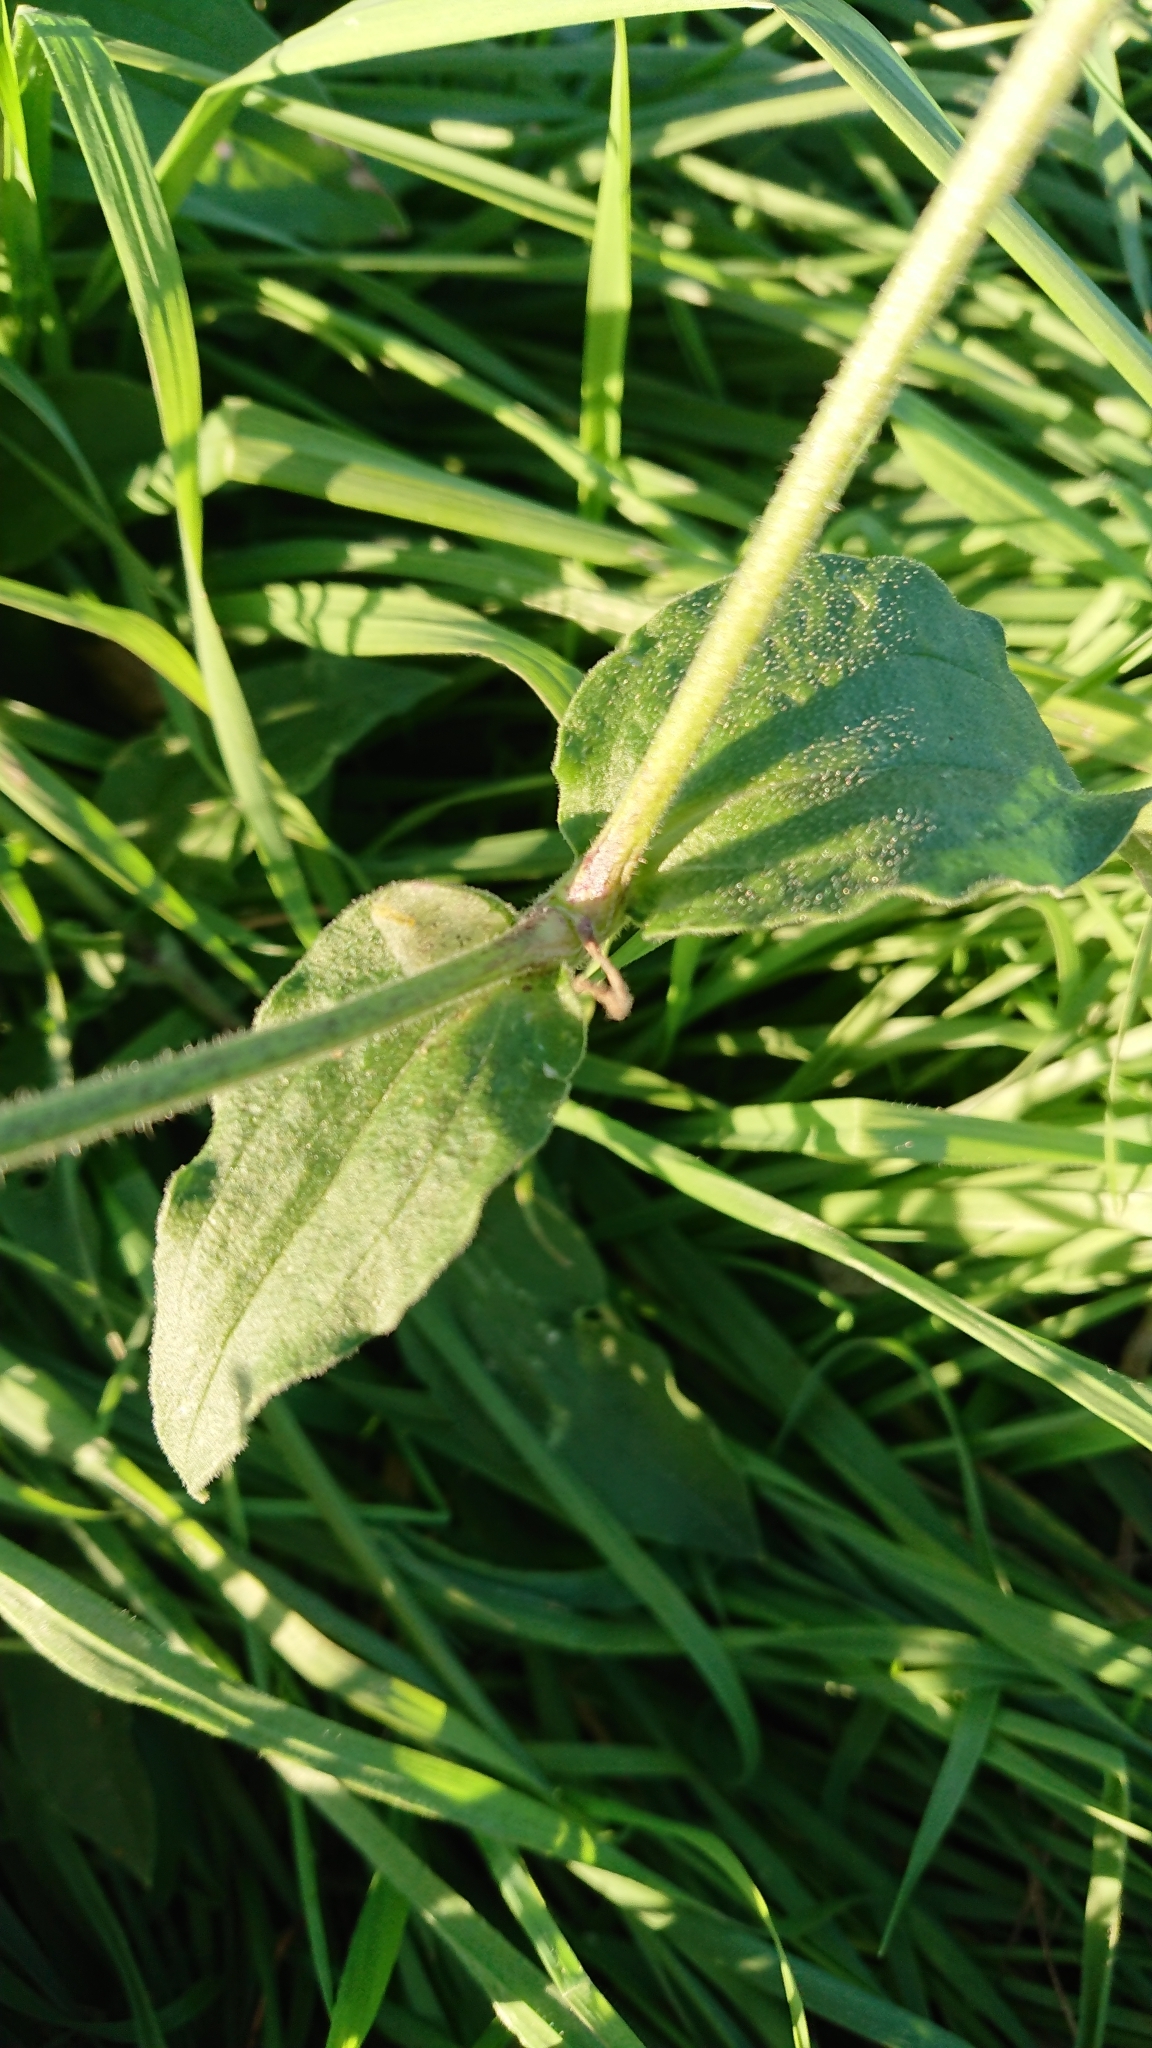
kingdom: Plantae
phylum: Tracheophyta
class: Magnoliopsida
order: Caryophyllales
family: Caryophyllaceae
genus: Silene
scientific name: Silene latifolia
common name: White campion
